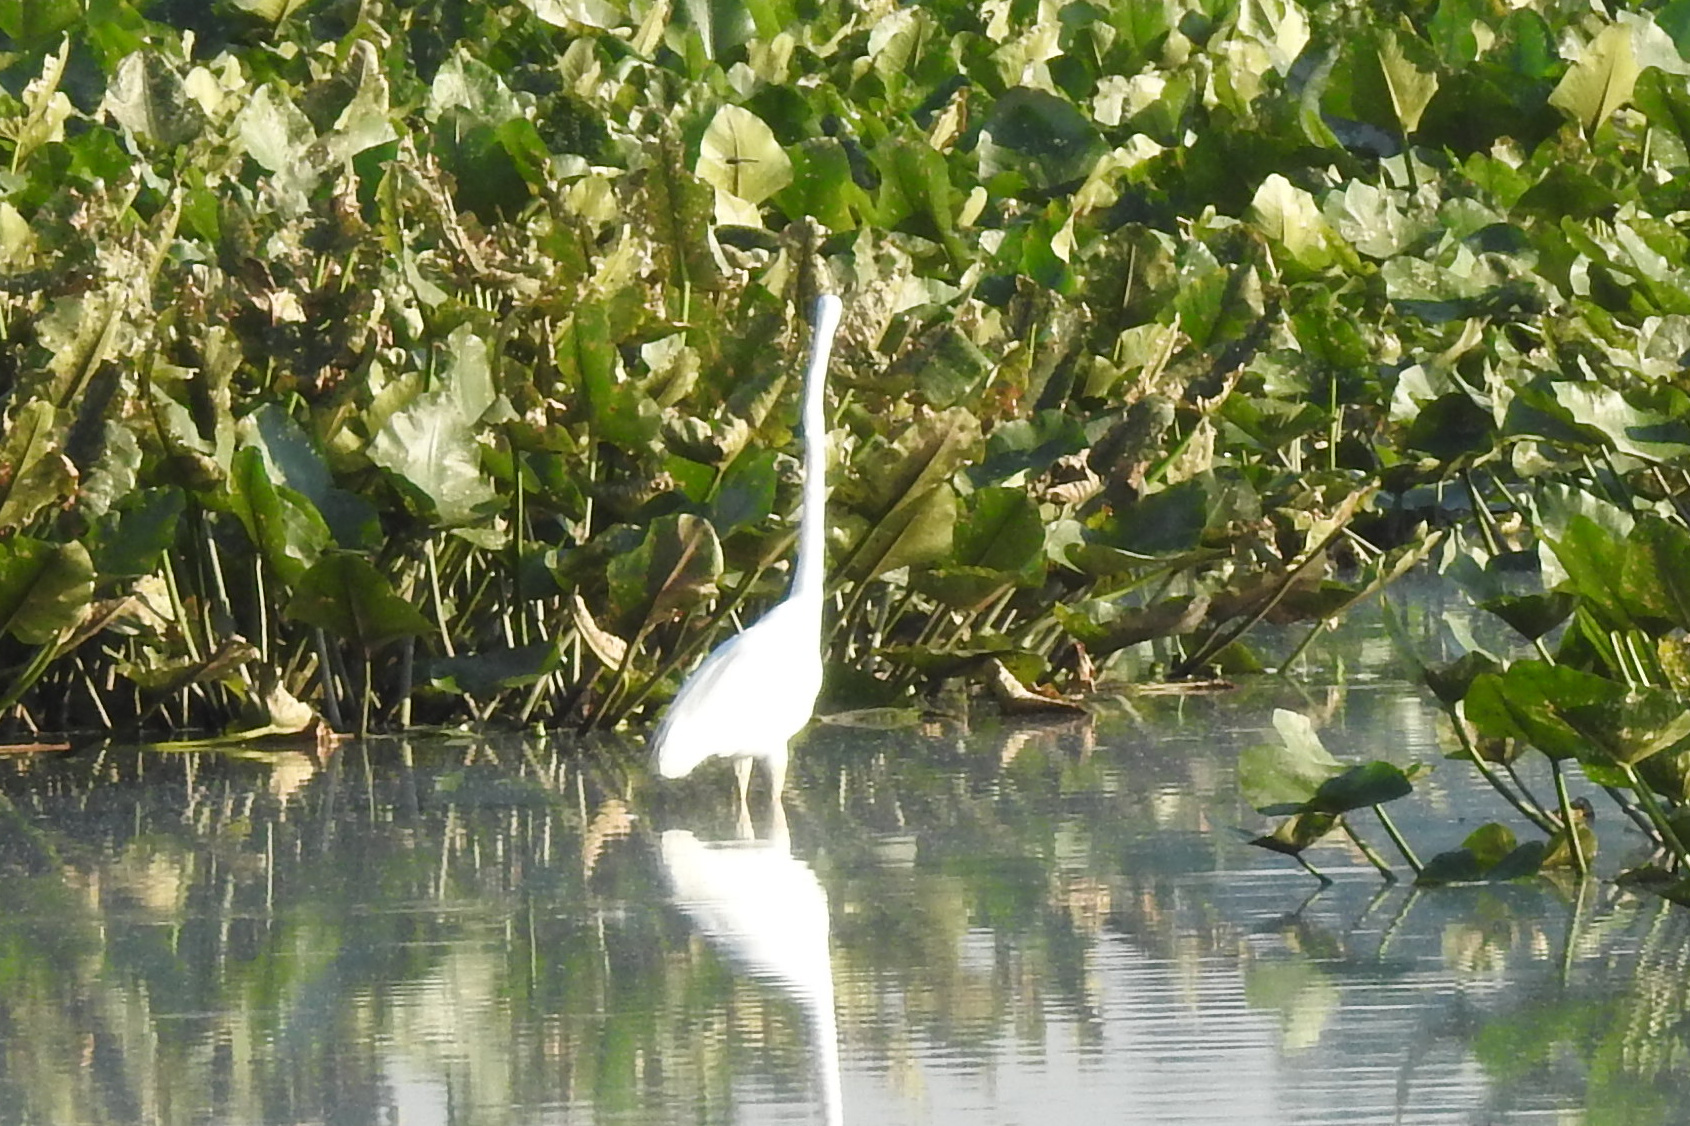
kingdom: Animalia
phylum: Chordata
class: Aves
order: Pelecaniformes
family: Ardeidae
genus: Ardea
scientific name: Ardea alba
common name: Great egret
